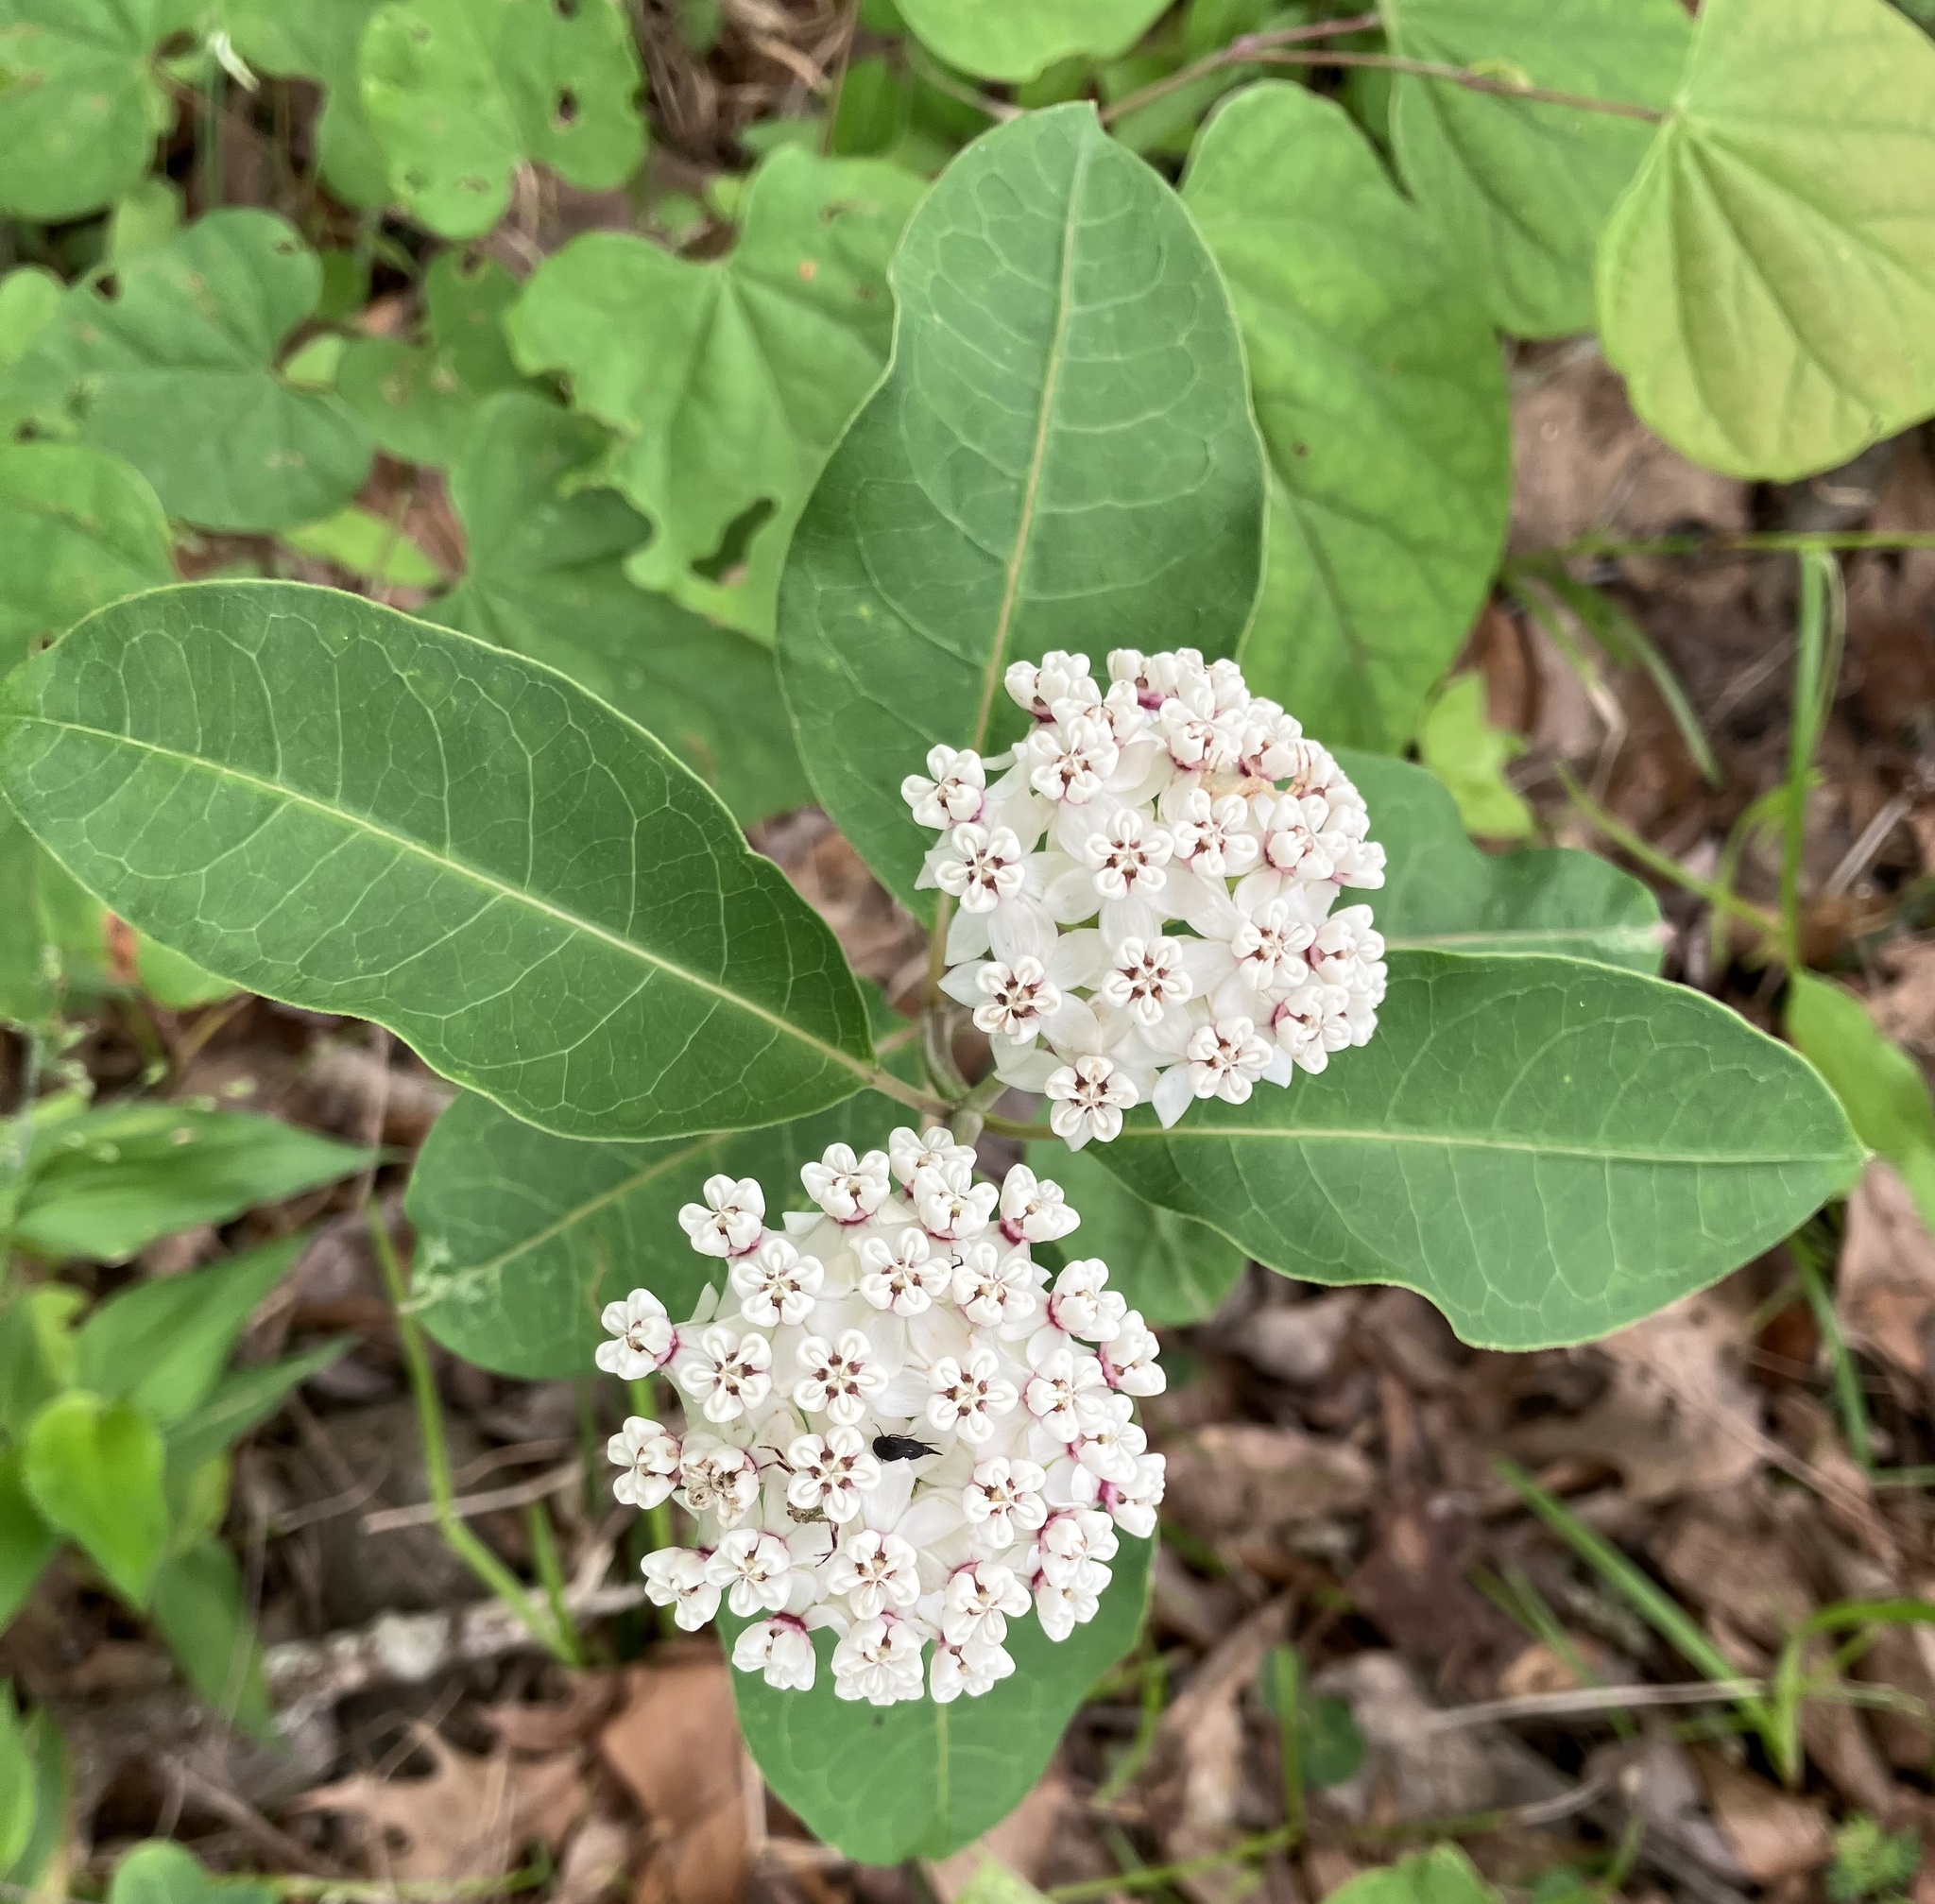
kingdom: Plantae
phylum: Tracheophyta
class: Magnoliopsida
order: Gentianales
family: Apocynaceae
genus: Asclepias
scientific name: Asclepias variegata
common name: Variegated milkweed
